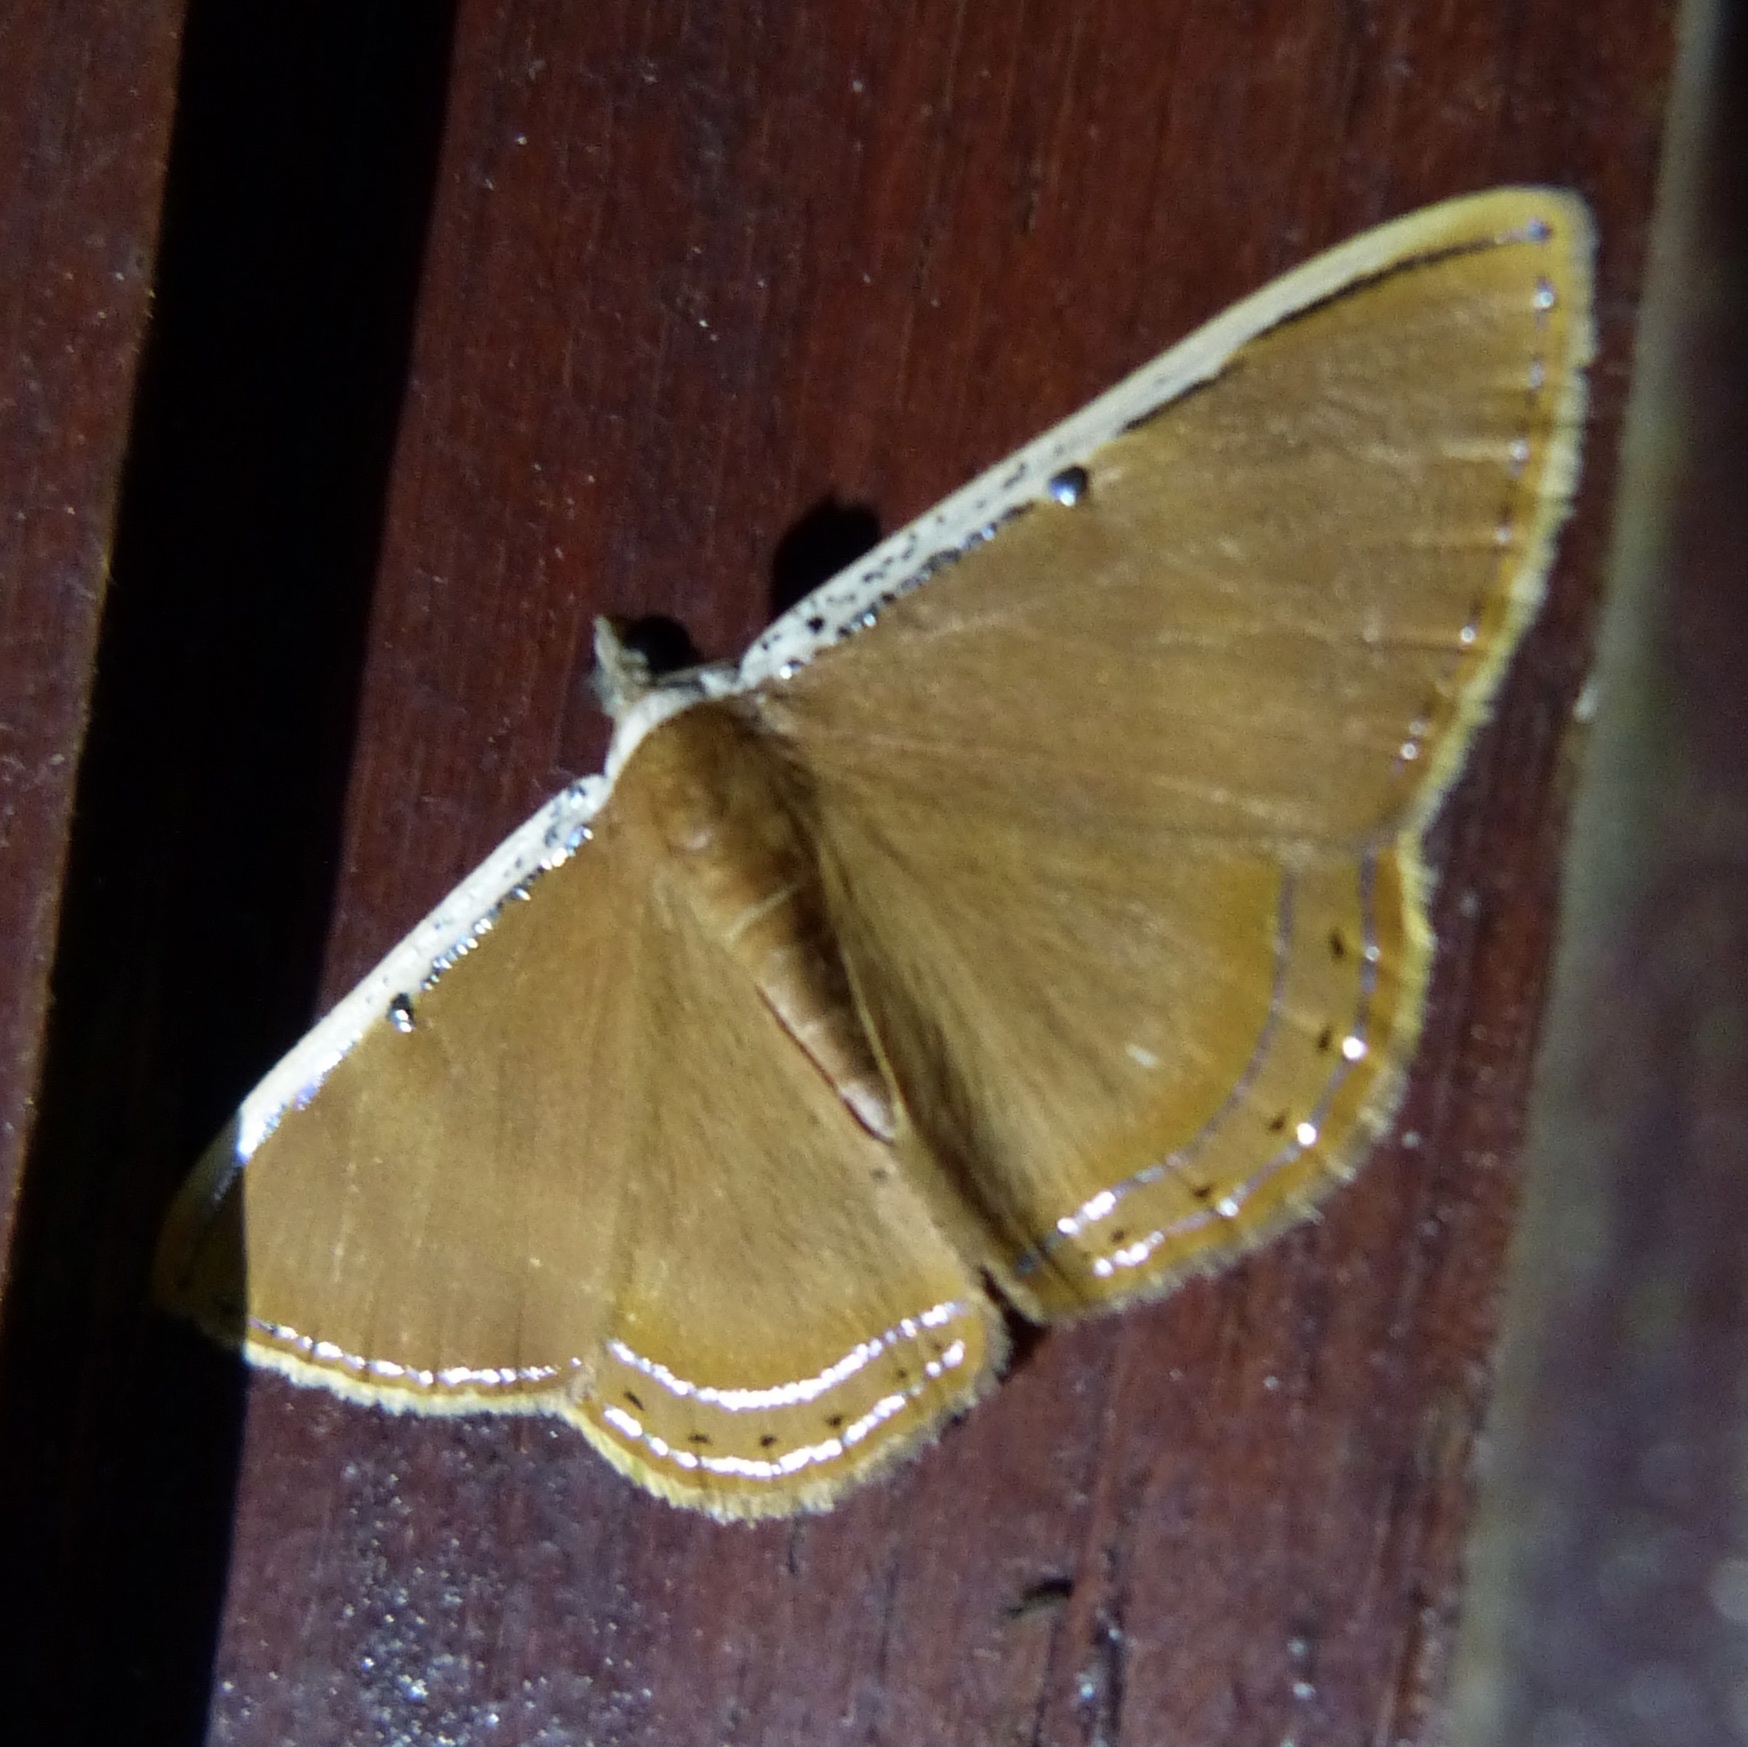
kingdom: Animalia
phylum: Arthropoda
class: Insecta
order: Lepidoptera
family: Geometridae
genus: Palyas
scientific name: Palyas pallicosta
